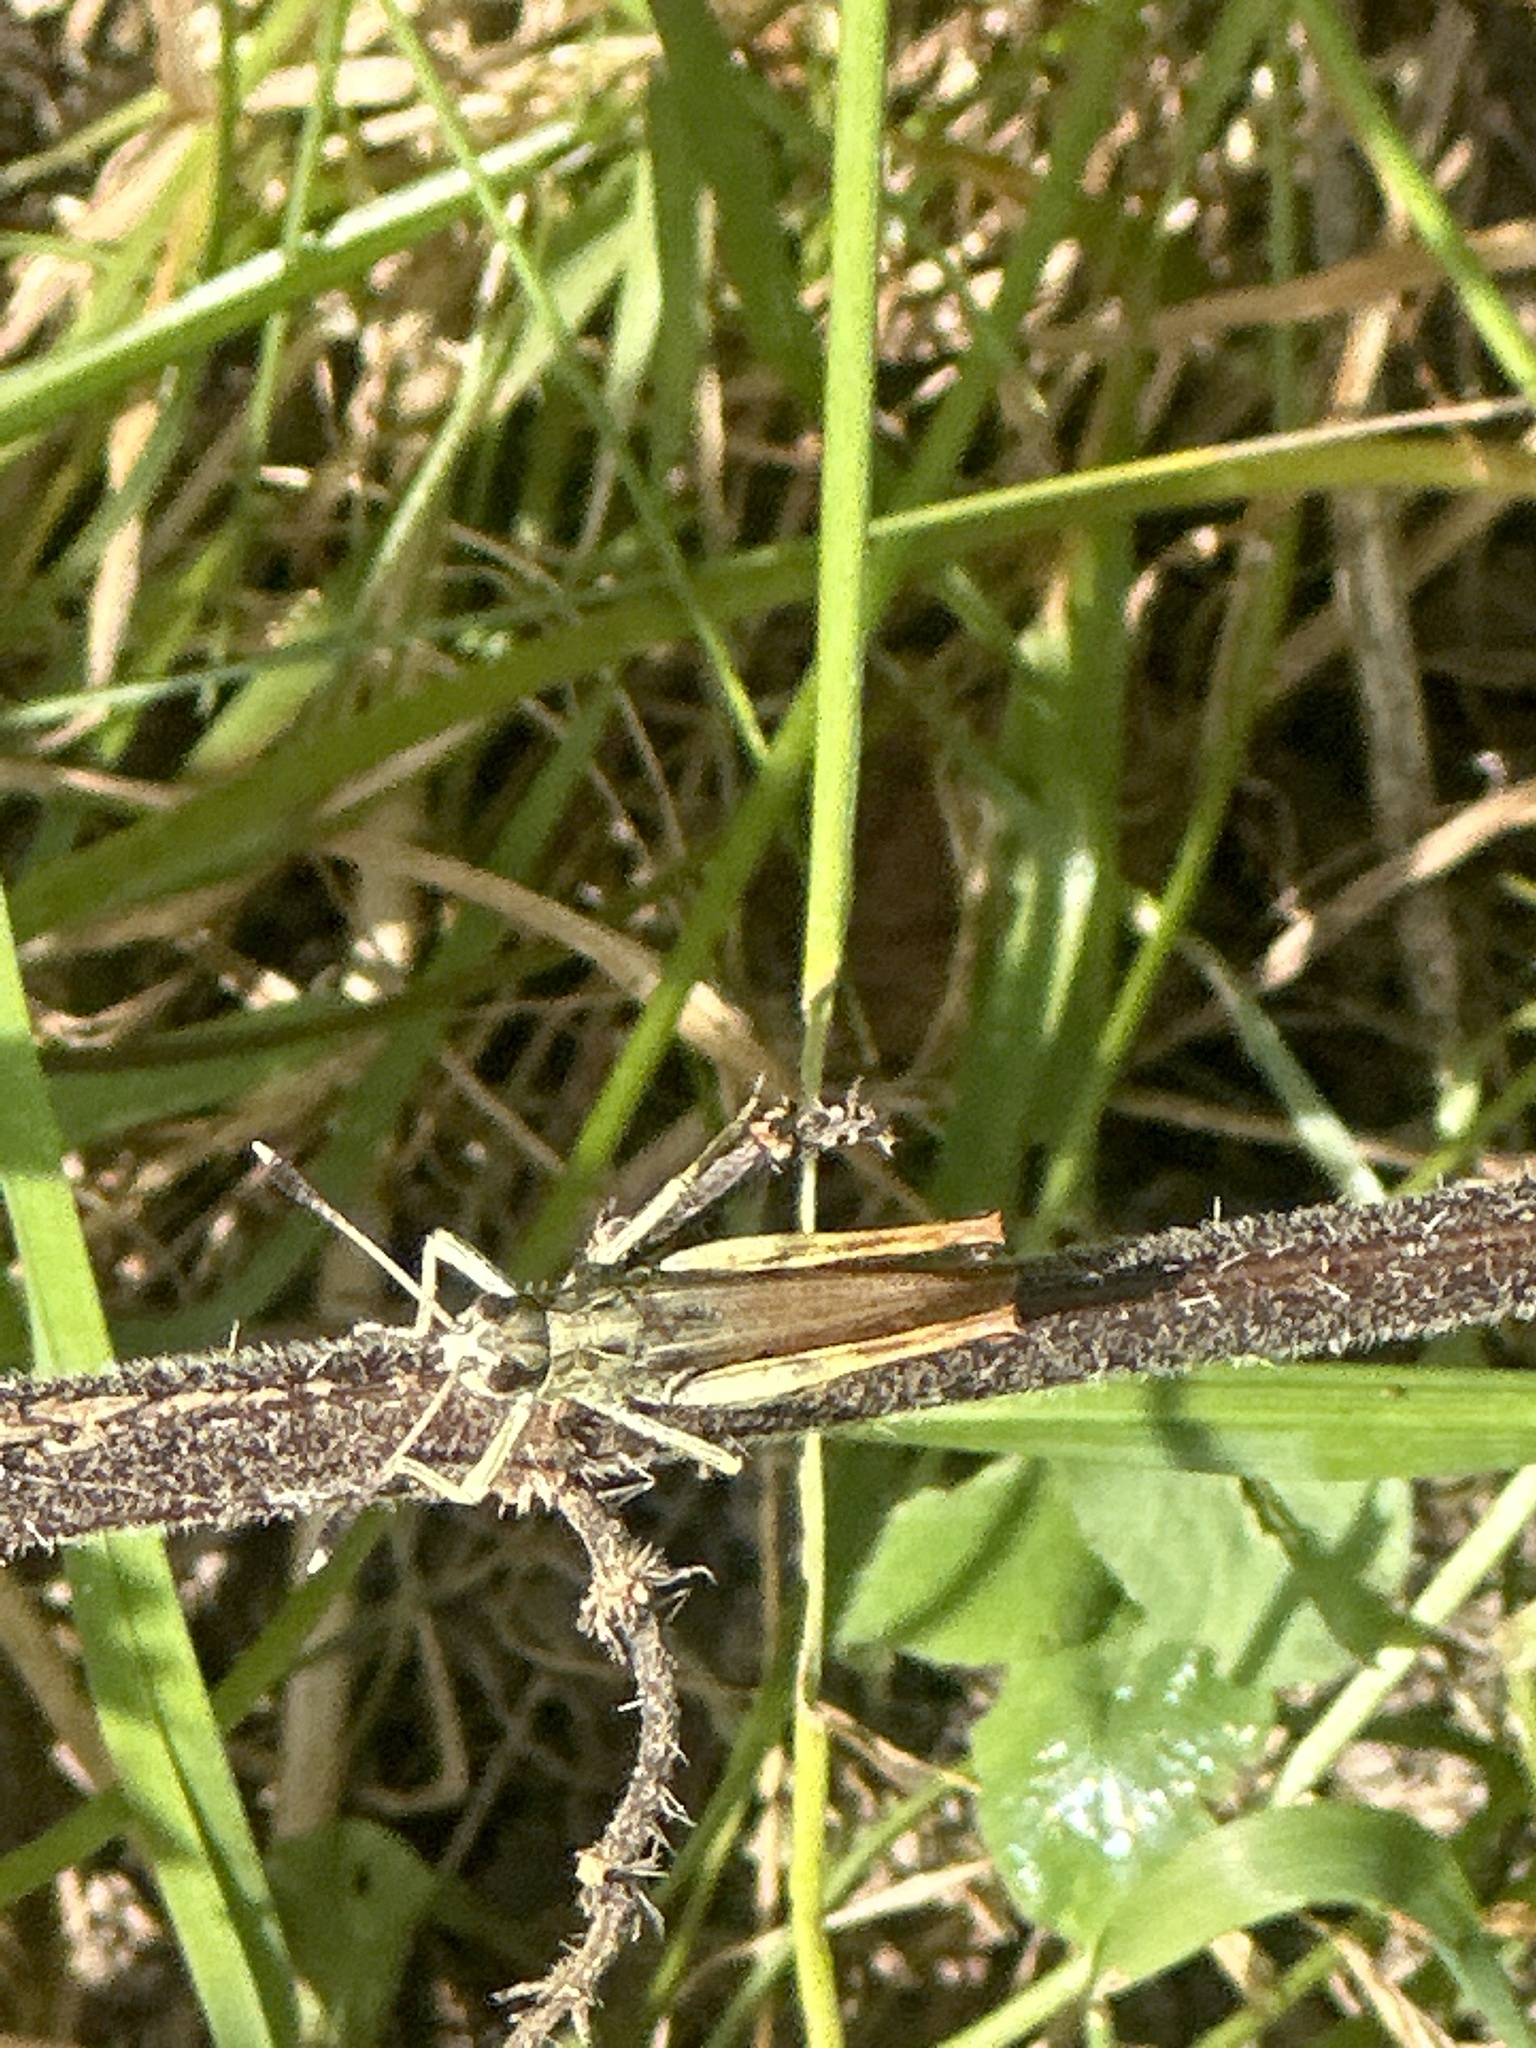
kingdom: Animalia
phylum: Arthropoda
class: Insecta
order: Orthoptera
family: Acrididae
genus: Gomphocerippus
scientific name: Gomphocerippus rufus
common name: Rufous grasshopper
